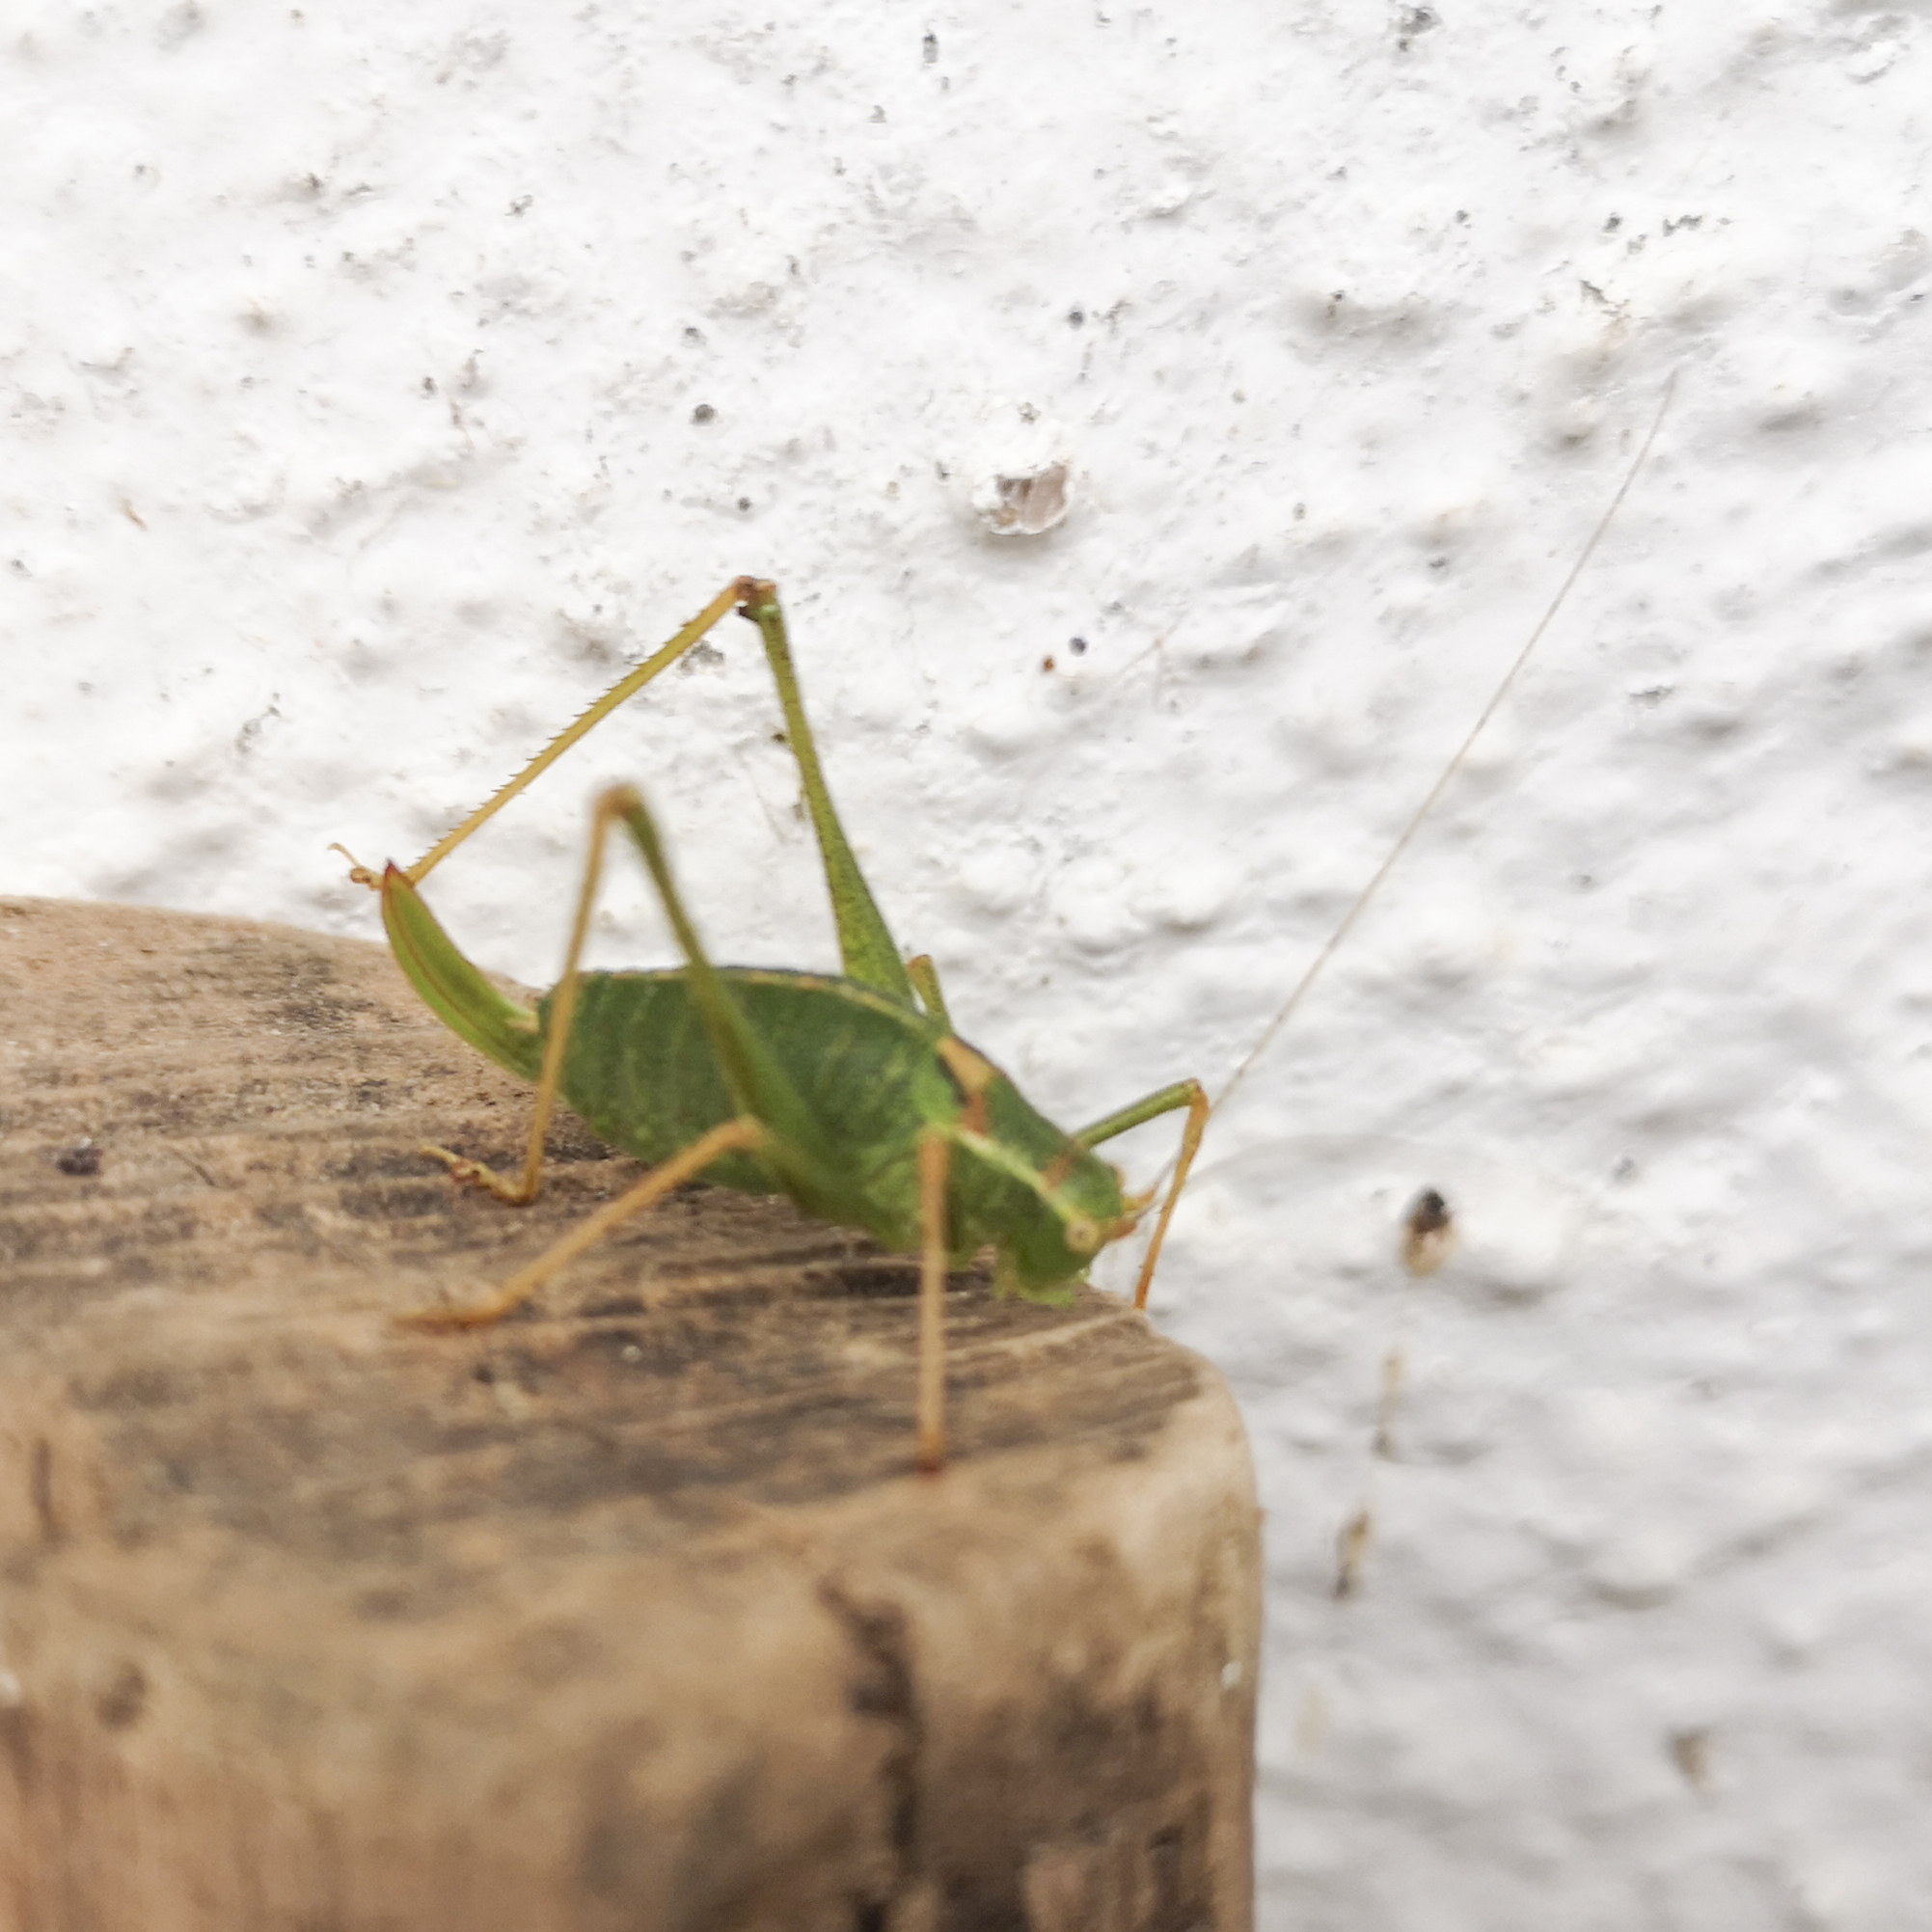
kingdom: Animalia
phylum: Arthropoda
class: Insecta
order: Orthoptera
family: Tettigoniidae
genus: Leptophyes
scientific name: Leptophyes punctatissima
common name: Speckled bush-cricket
